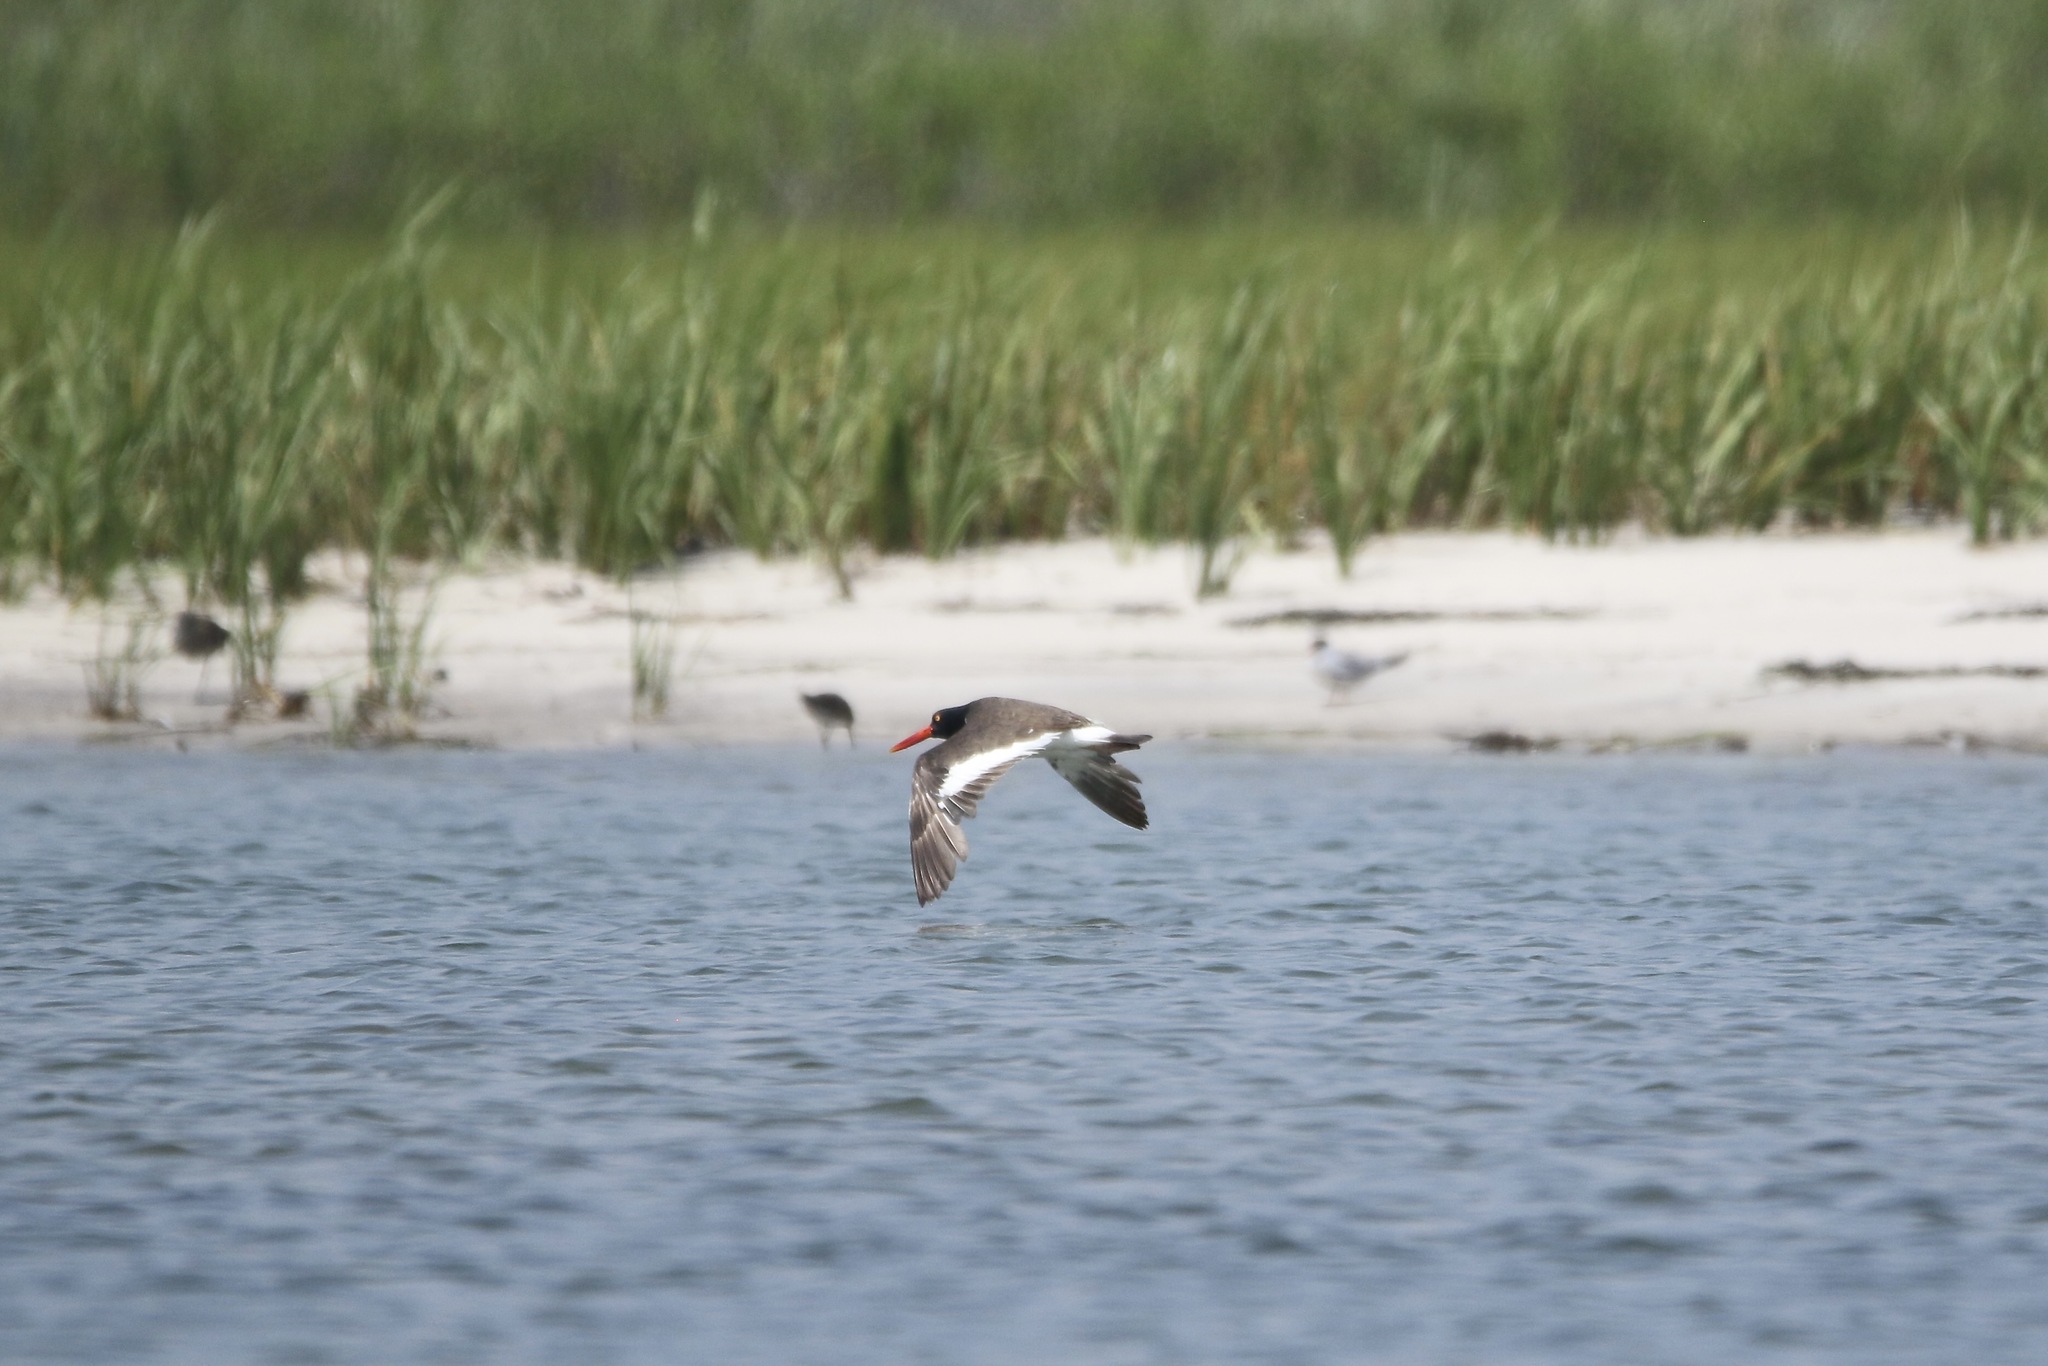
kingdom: Animalia
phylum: Chordata
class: Aves
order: Charadriiformes
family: Haematopodidae
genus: Haematopus
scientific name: Haematopus palliatus
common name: American oystercatcher
